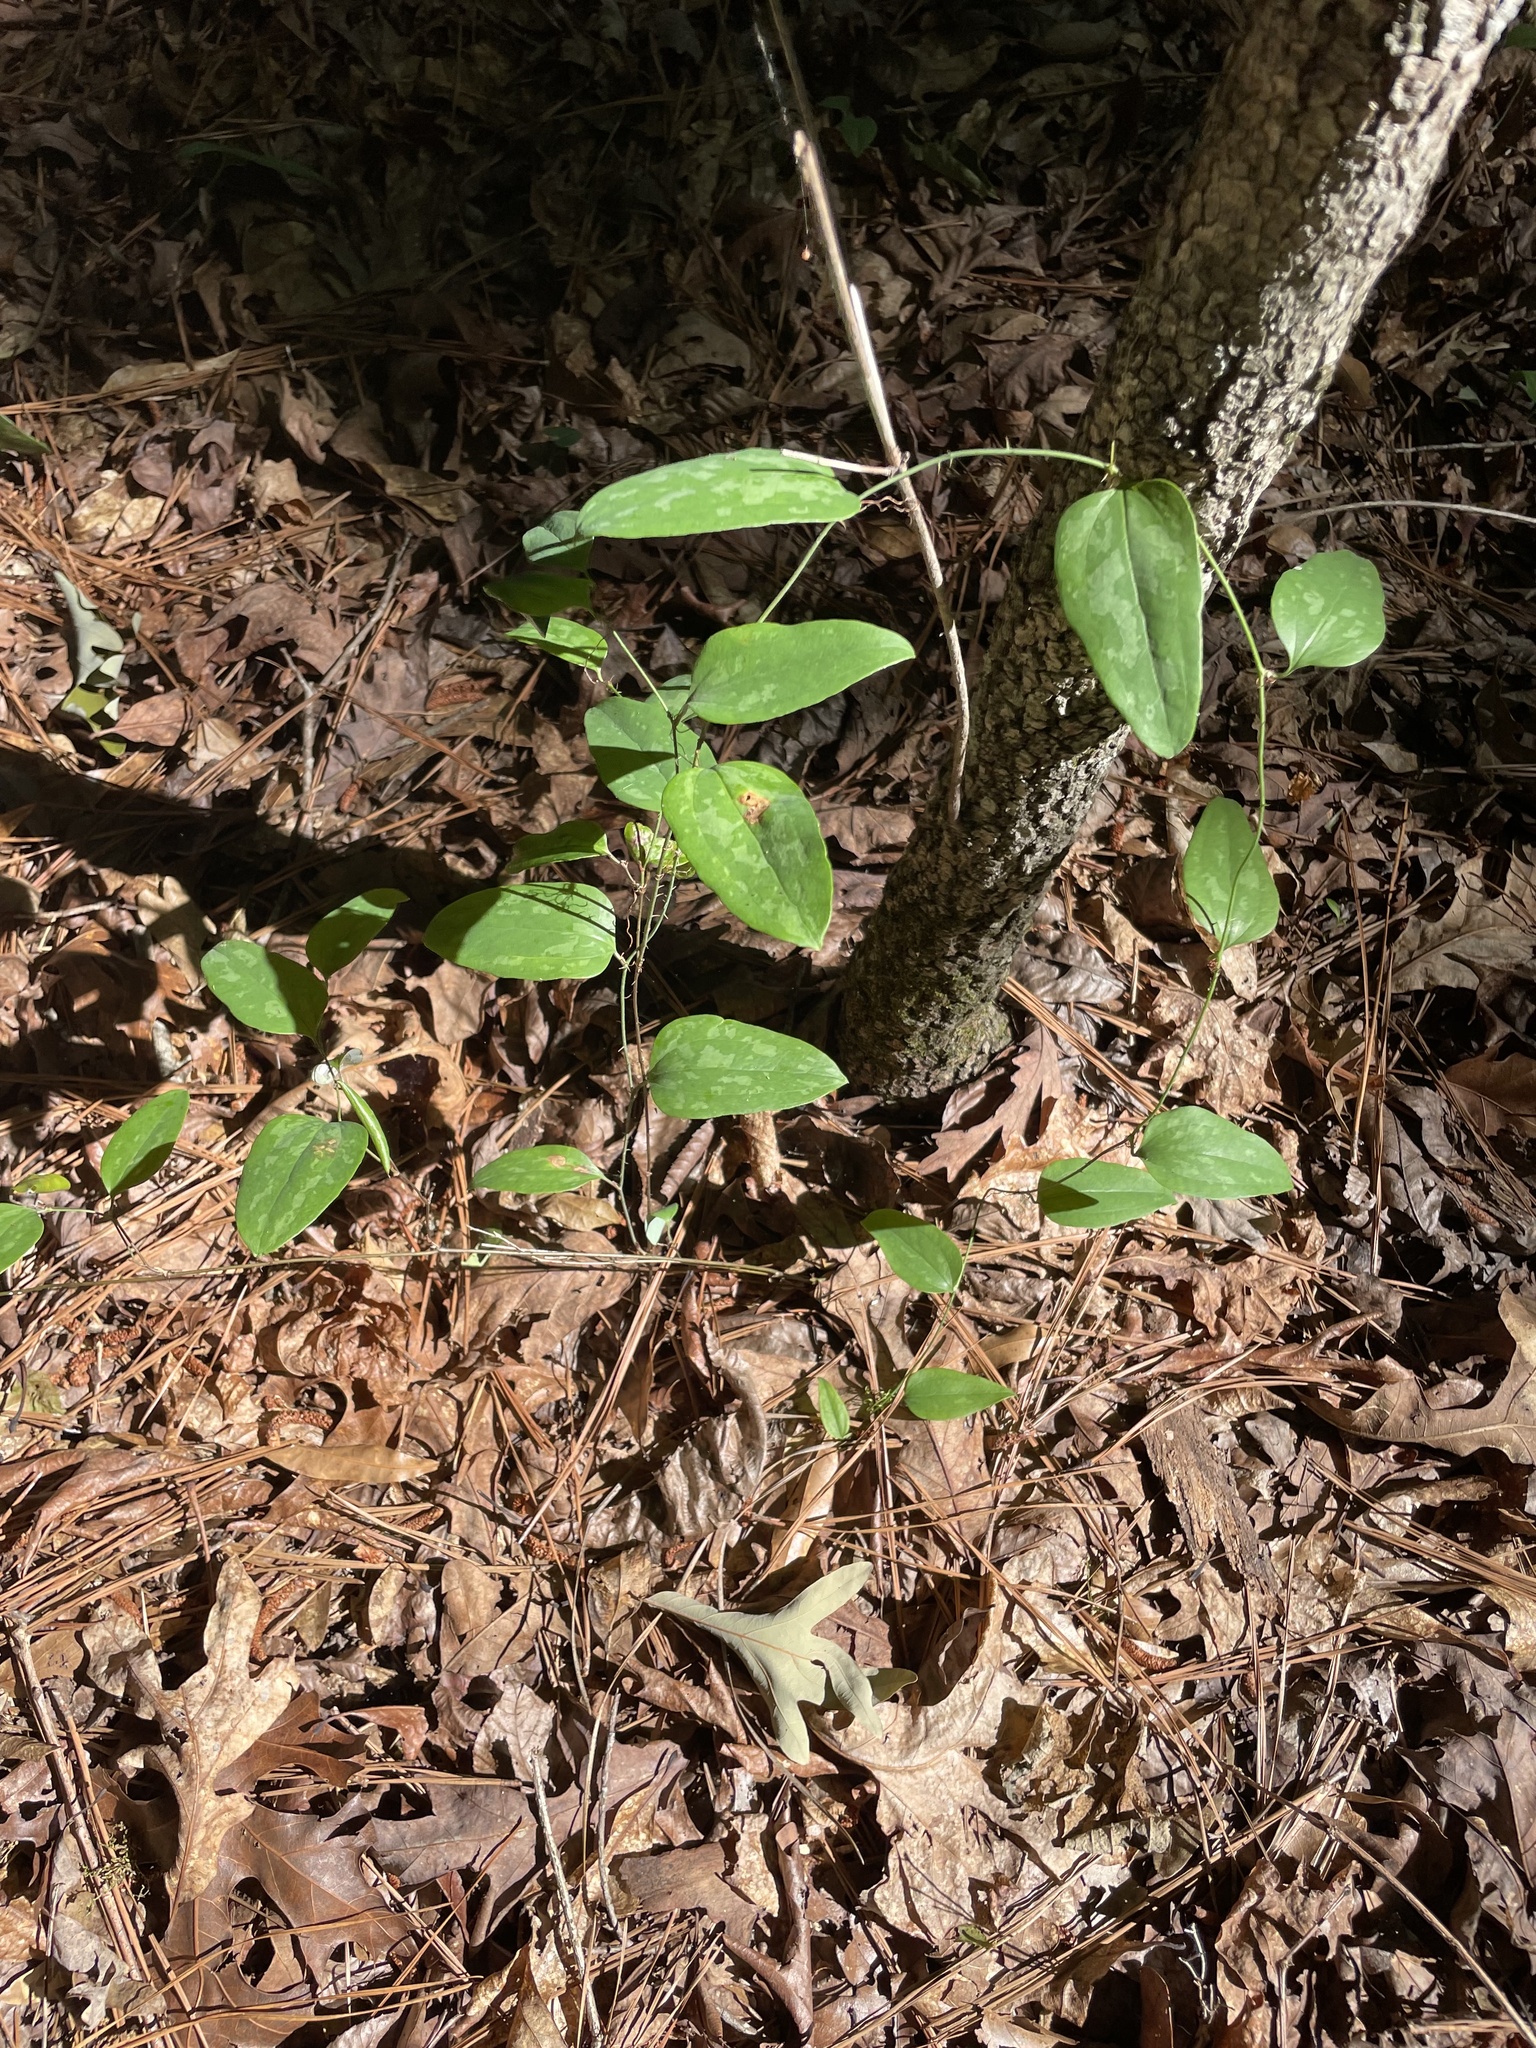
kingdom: Plantae
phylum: Tracheophyta
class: Liliopsida
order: Liliales
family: Smilacaceae
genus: Smilax
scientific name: Smilax glauca
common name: Cat greenbrier
